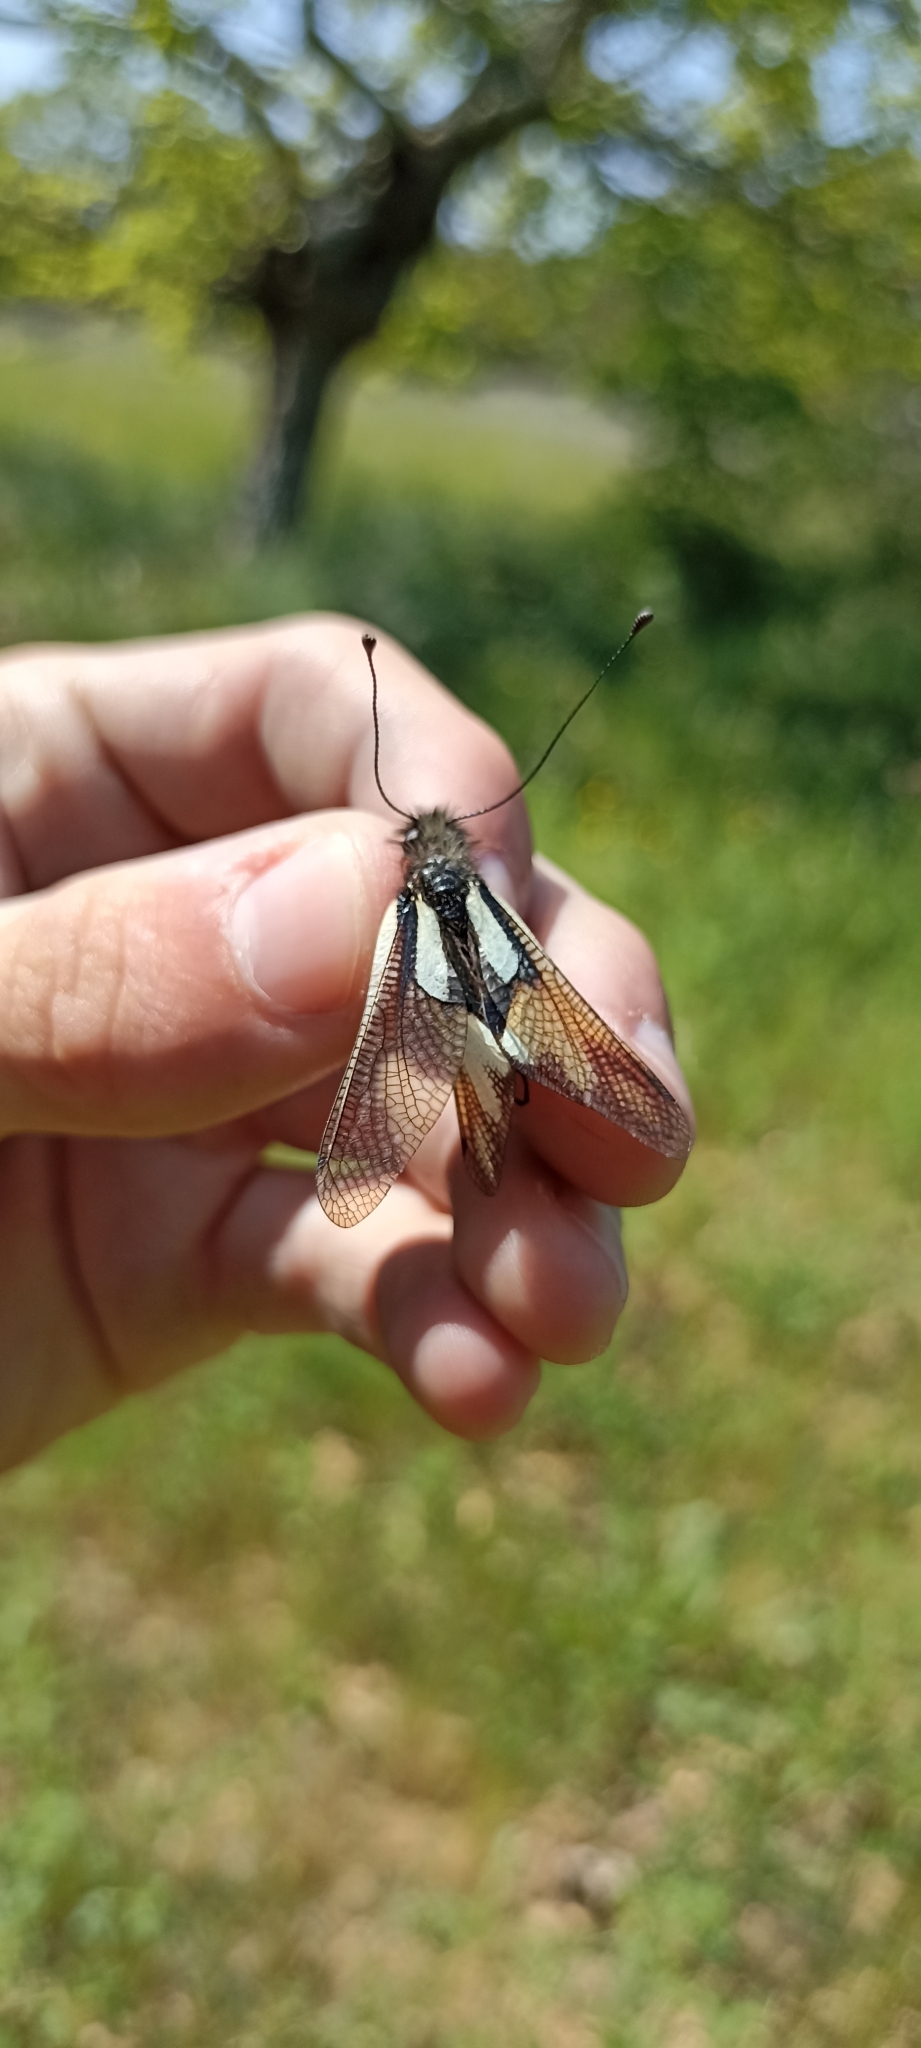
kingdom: Animalia
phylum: Arthropoda
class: Insecta
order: Neuroptera
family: Ascalaphidae
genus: Libelloides
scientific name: Libelloides coccajus
